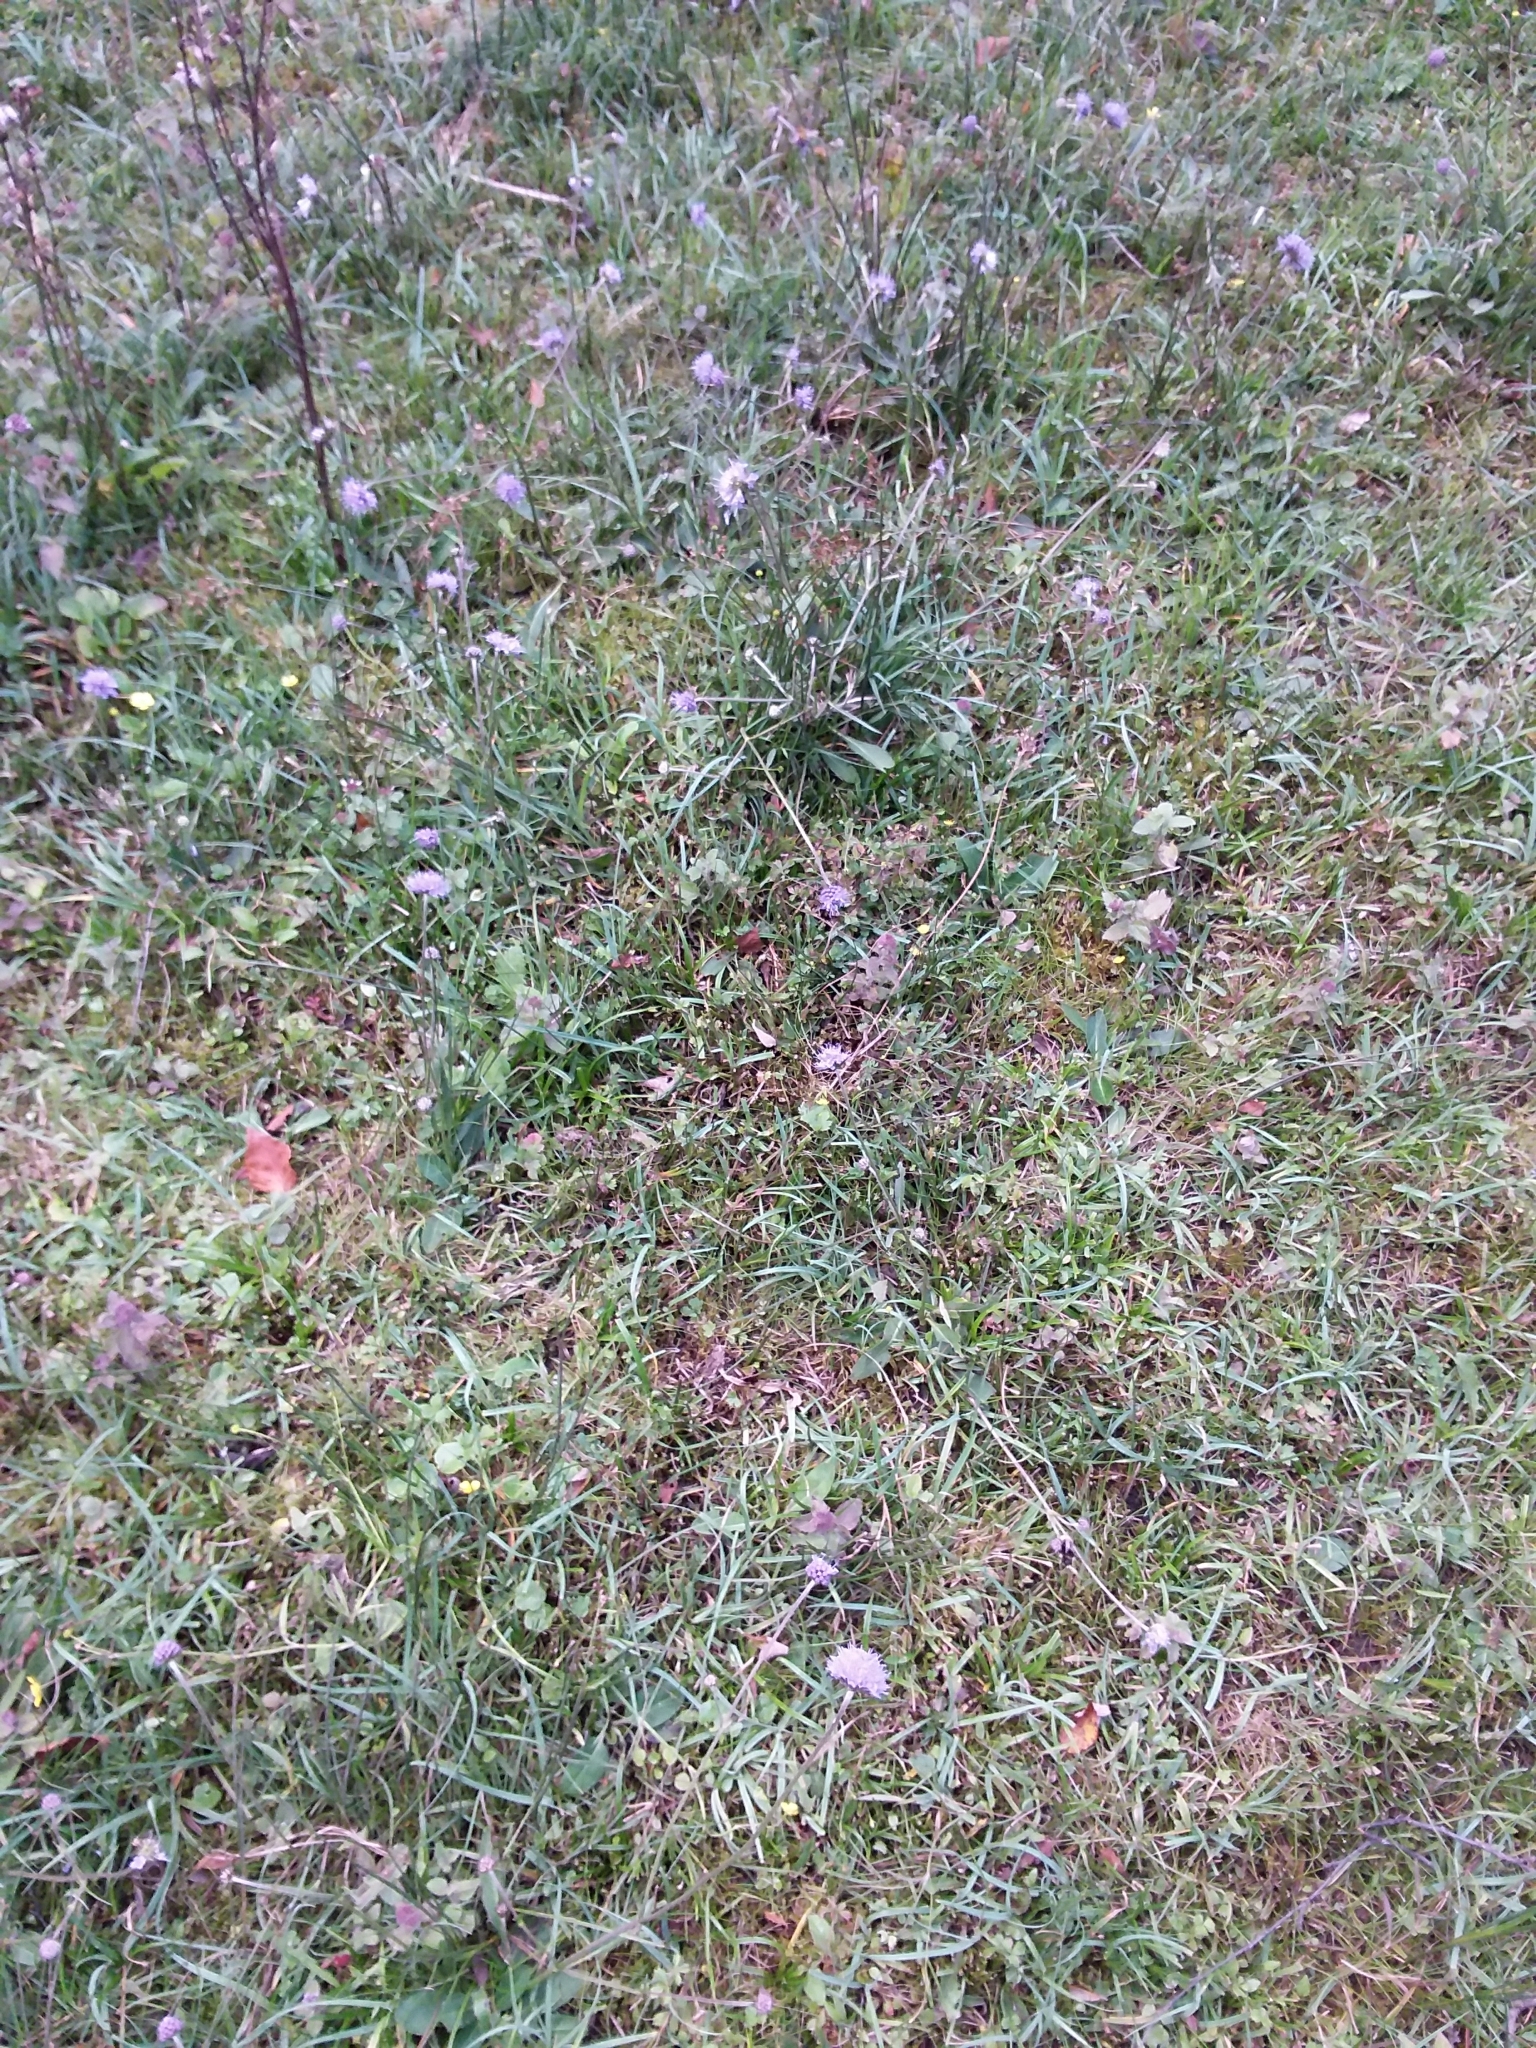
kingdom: Plantae
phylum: Tracheophyta
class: Magnoliopsida
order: Dipsacales
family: Caprifoliaceae
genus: Succisa
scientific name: Succisa pratensis
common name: Devil's-bit
